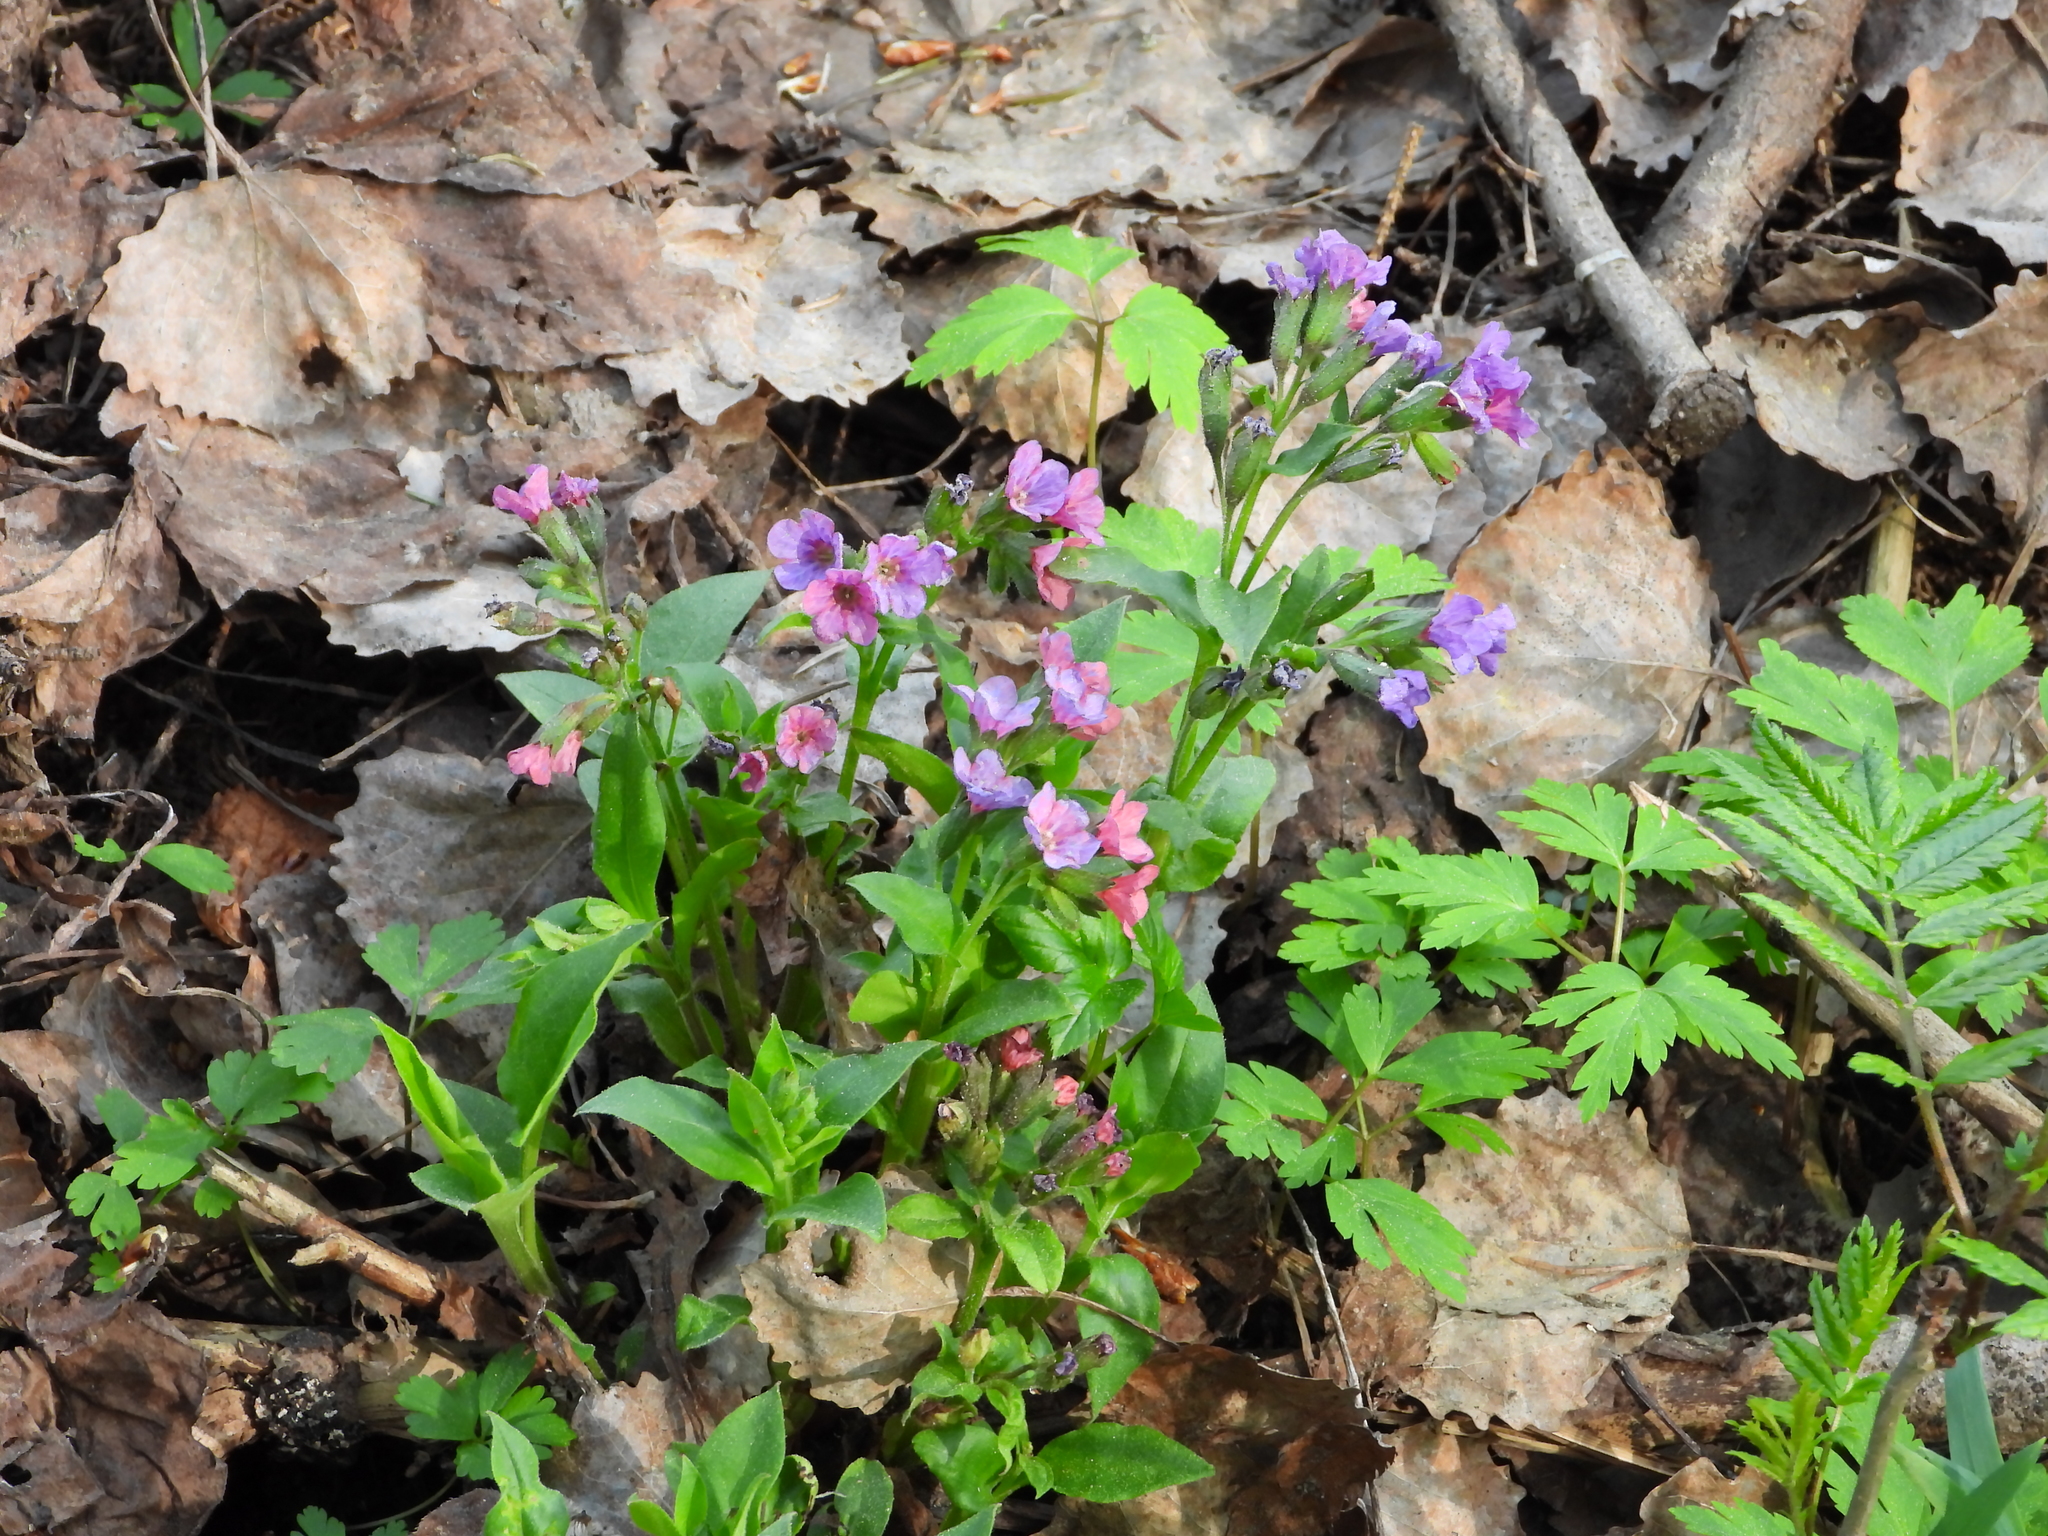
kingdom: Plantae
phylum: Tracheophyta
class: Magnoliopsida
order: Boraginales
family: Boraginaceae
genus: Pulmonaria
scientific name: Pulmonaria obscura
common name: Suffolk lungwort
